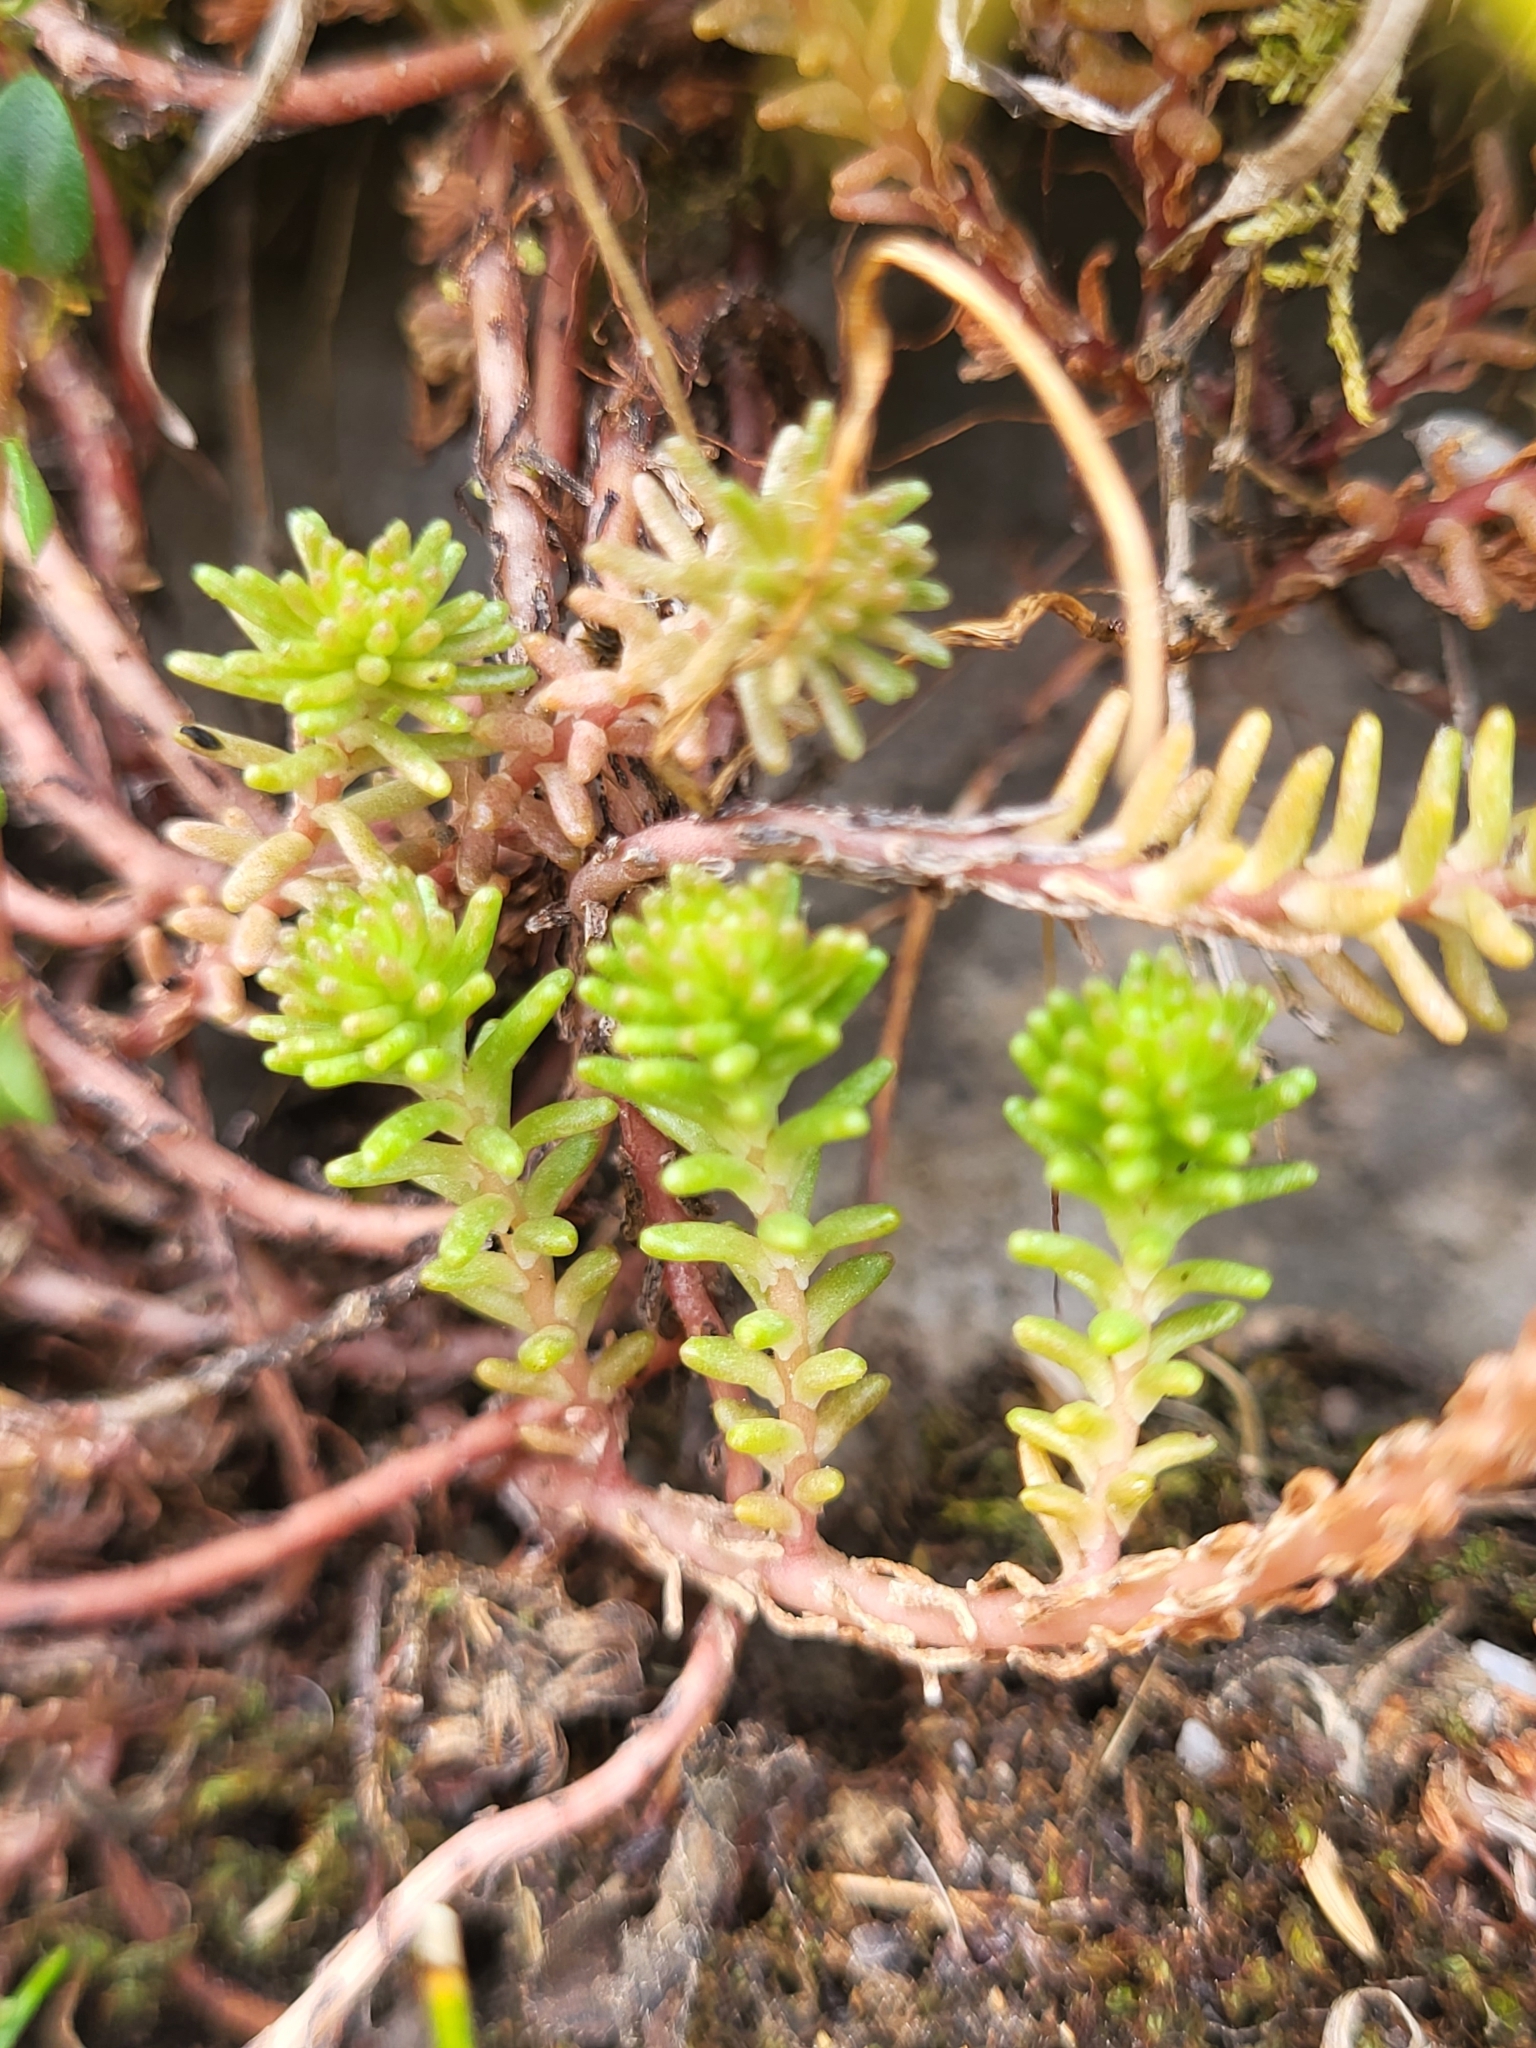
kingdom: Plantae
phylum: Tracheophyta
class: Magnoliopsida
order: Saxifragales
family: Crassulaceae
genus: Sedum
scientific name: Sedum sexangulare
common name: Tasteless stonecrop
